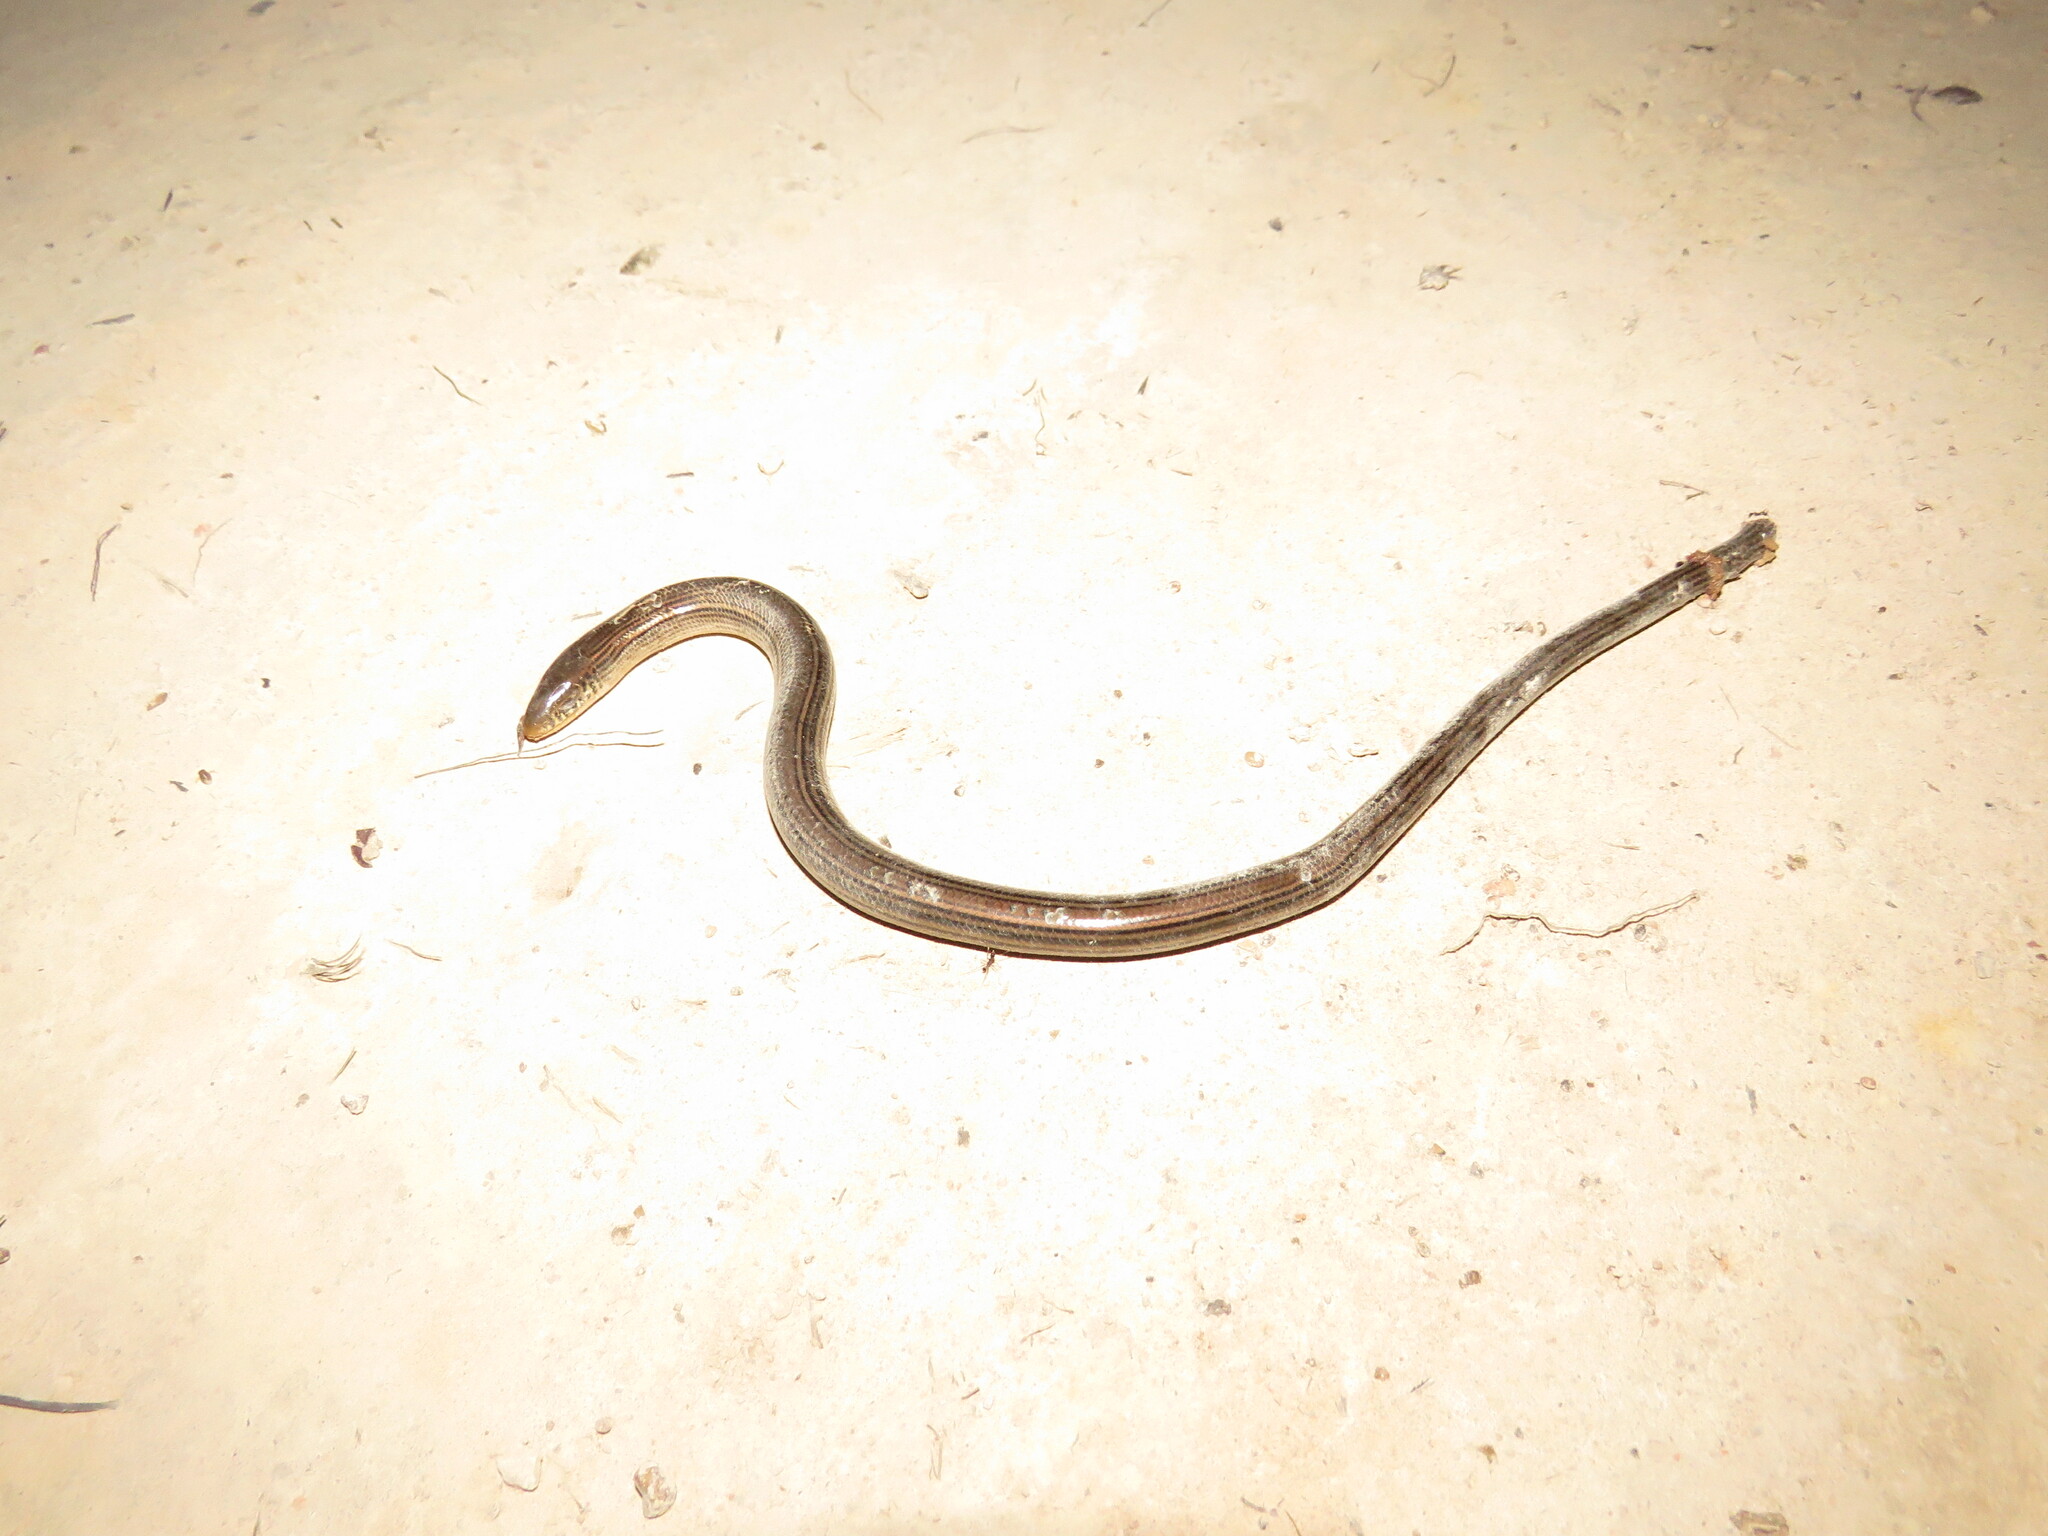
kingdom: Animalia
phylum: Chordata
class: Squamata
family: Diploglossidae
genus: Ophiodes
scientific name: Ophiodes intermedius
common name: Middle worm lizard
